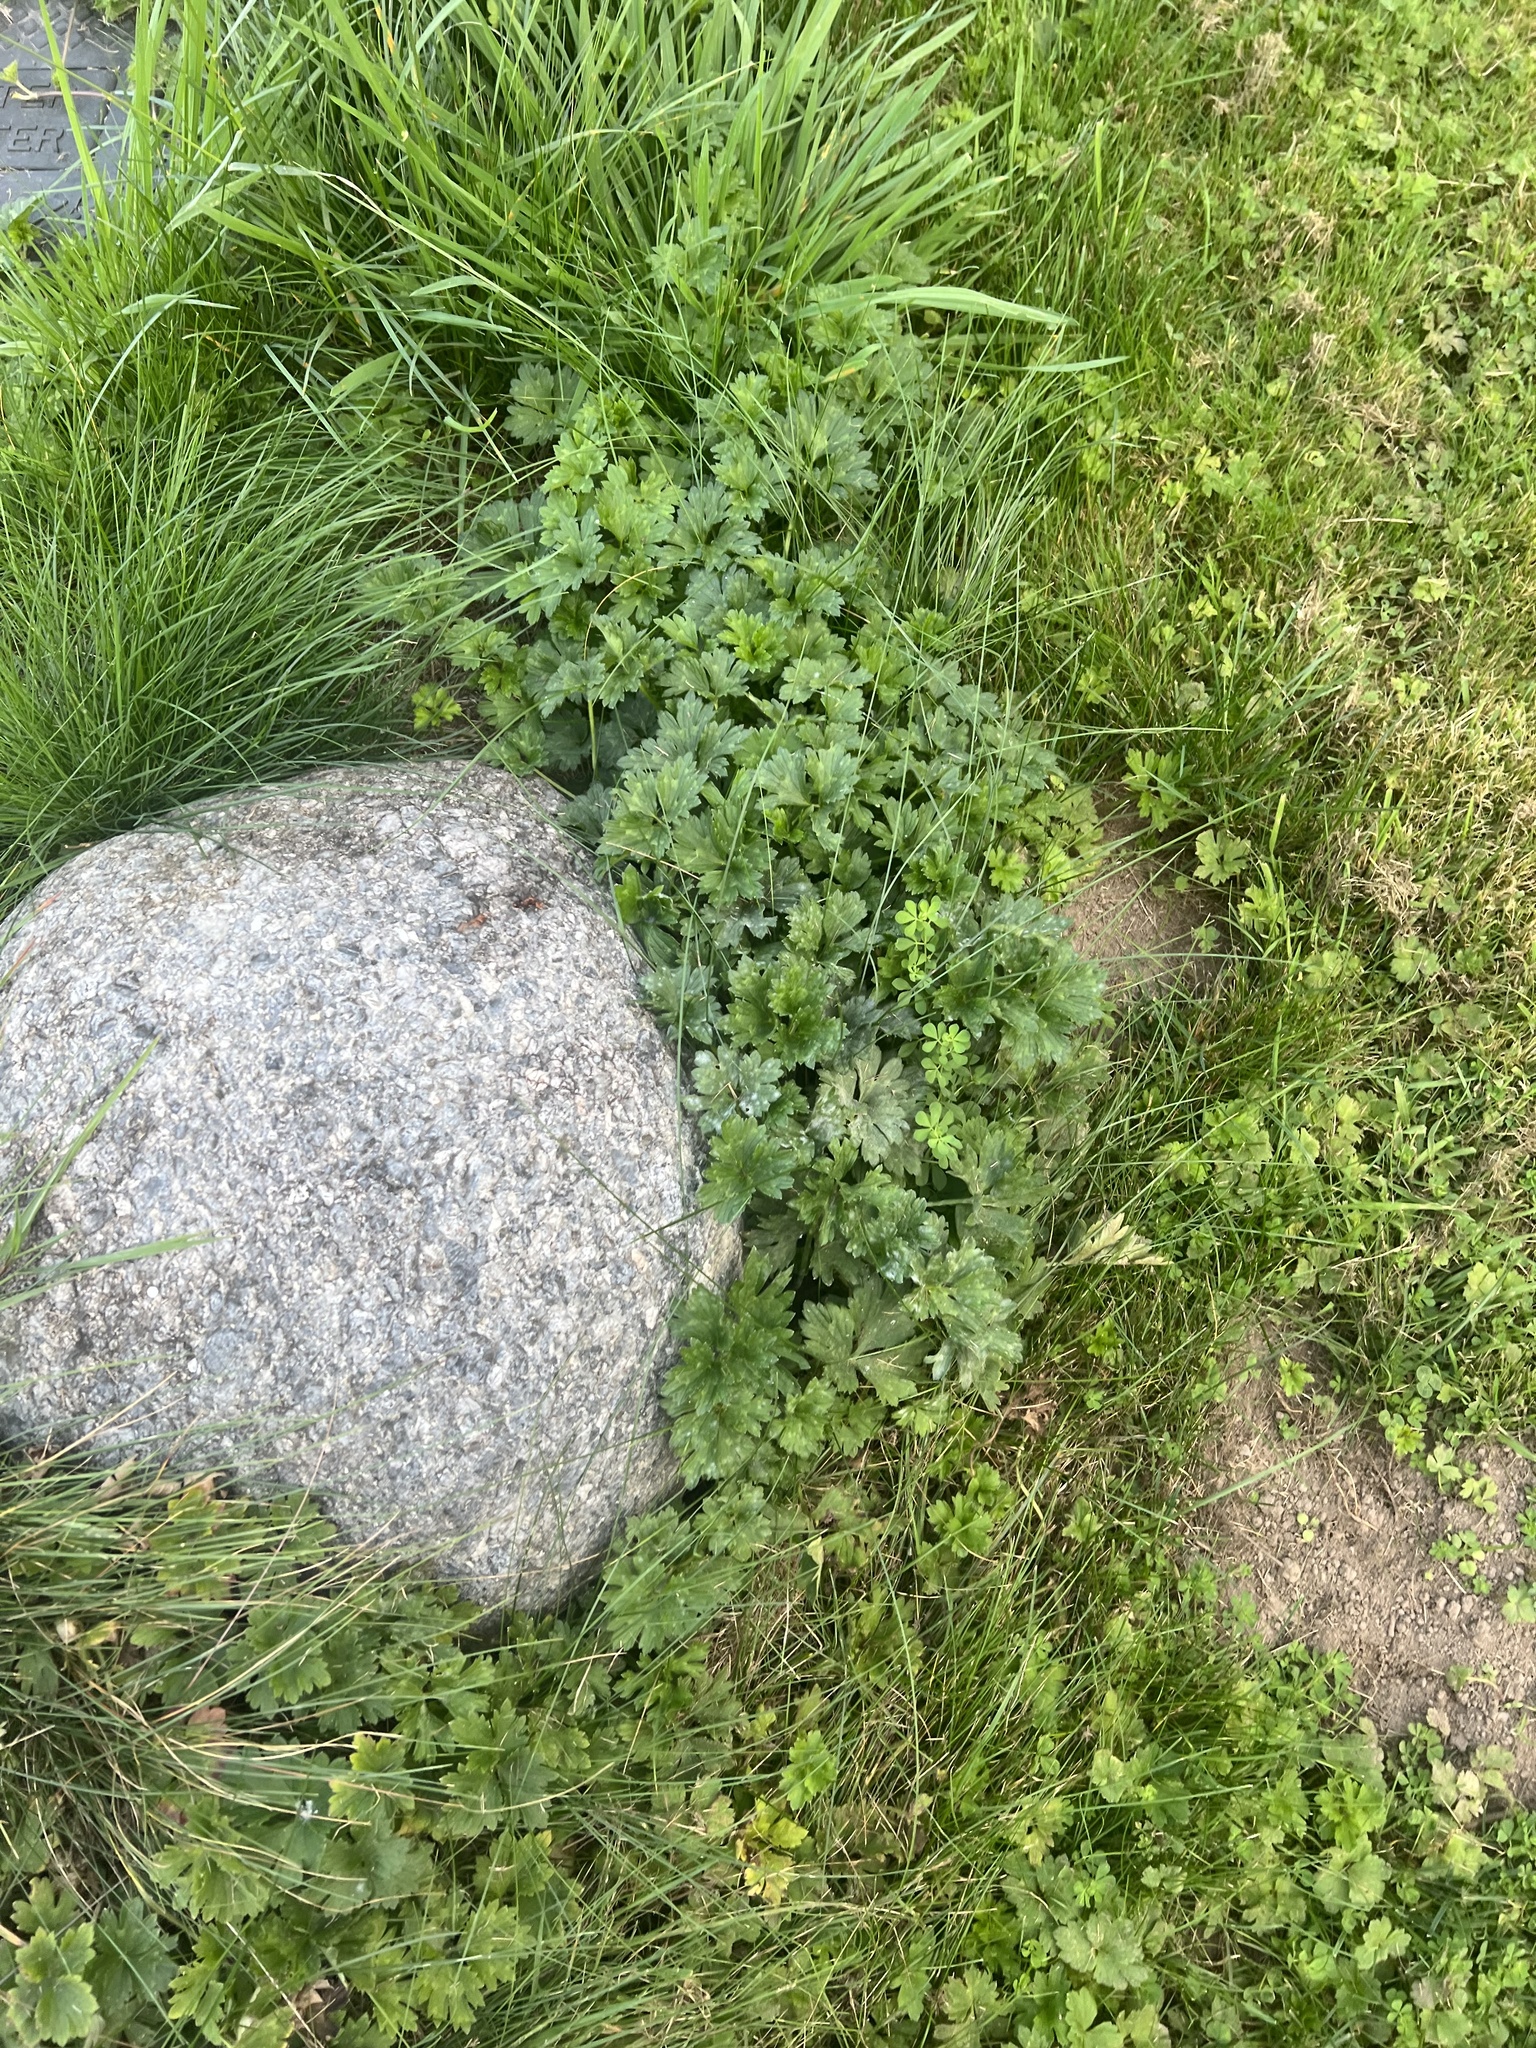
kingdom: Plantae
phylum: Tracheophyta
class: Magnoliopsida
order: Ranunculales
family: Ranunculaceae
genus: Ranunculus
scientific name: Ranunculus repens
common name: Creeping buttercup
